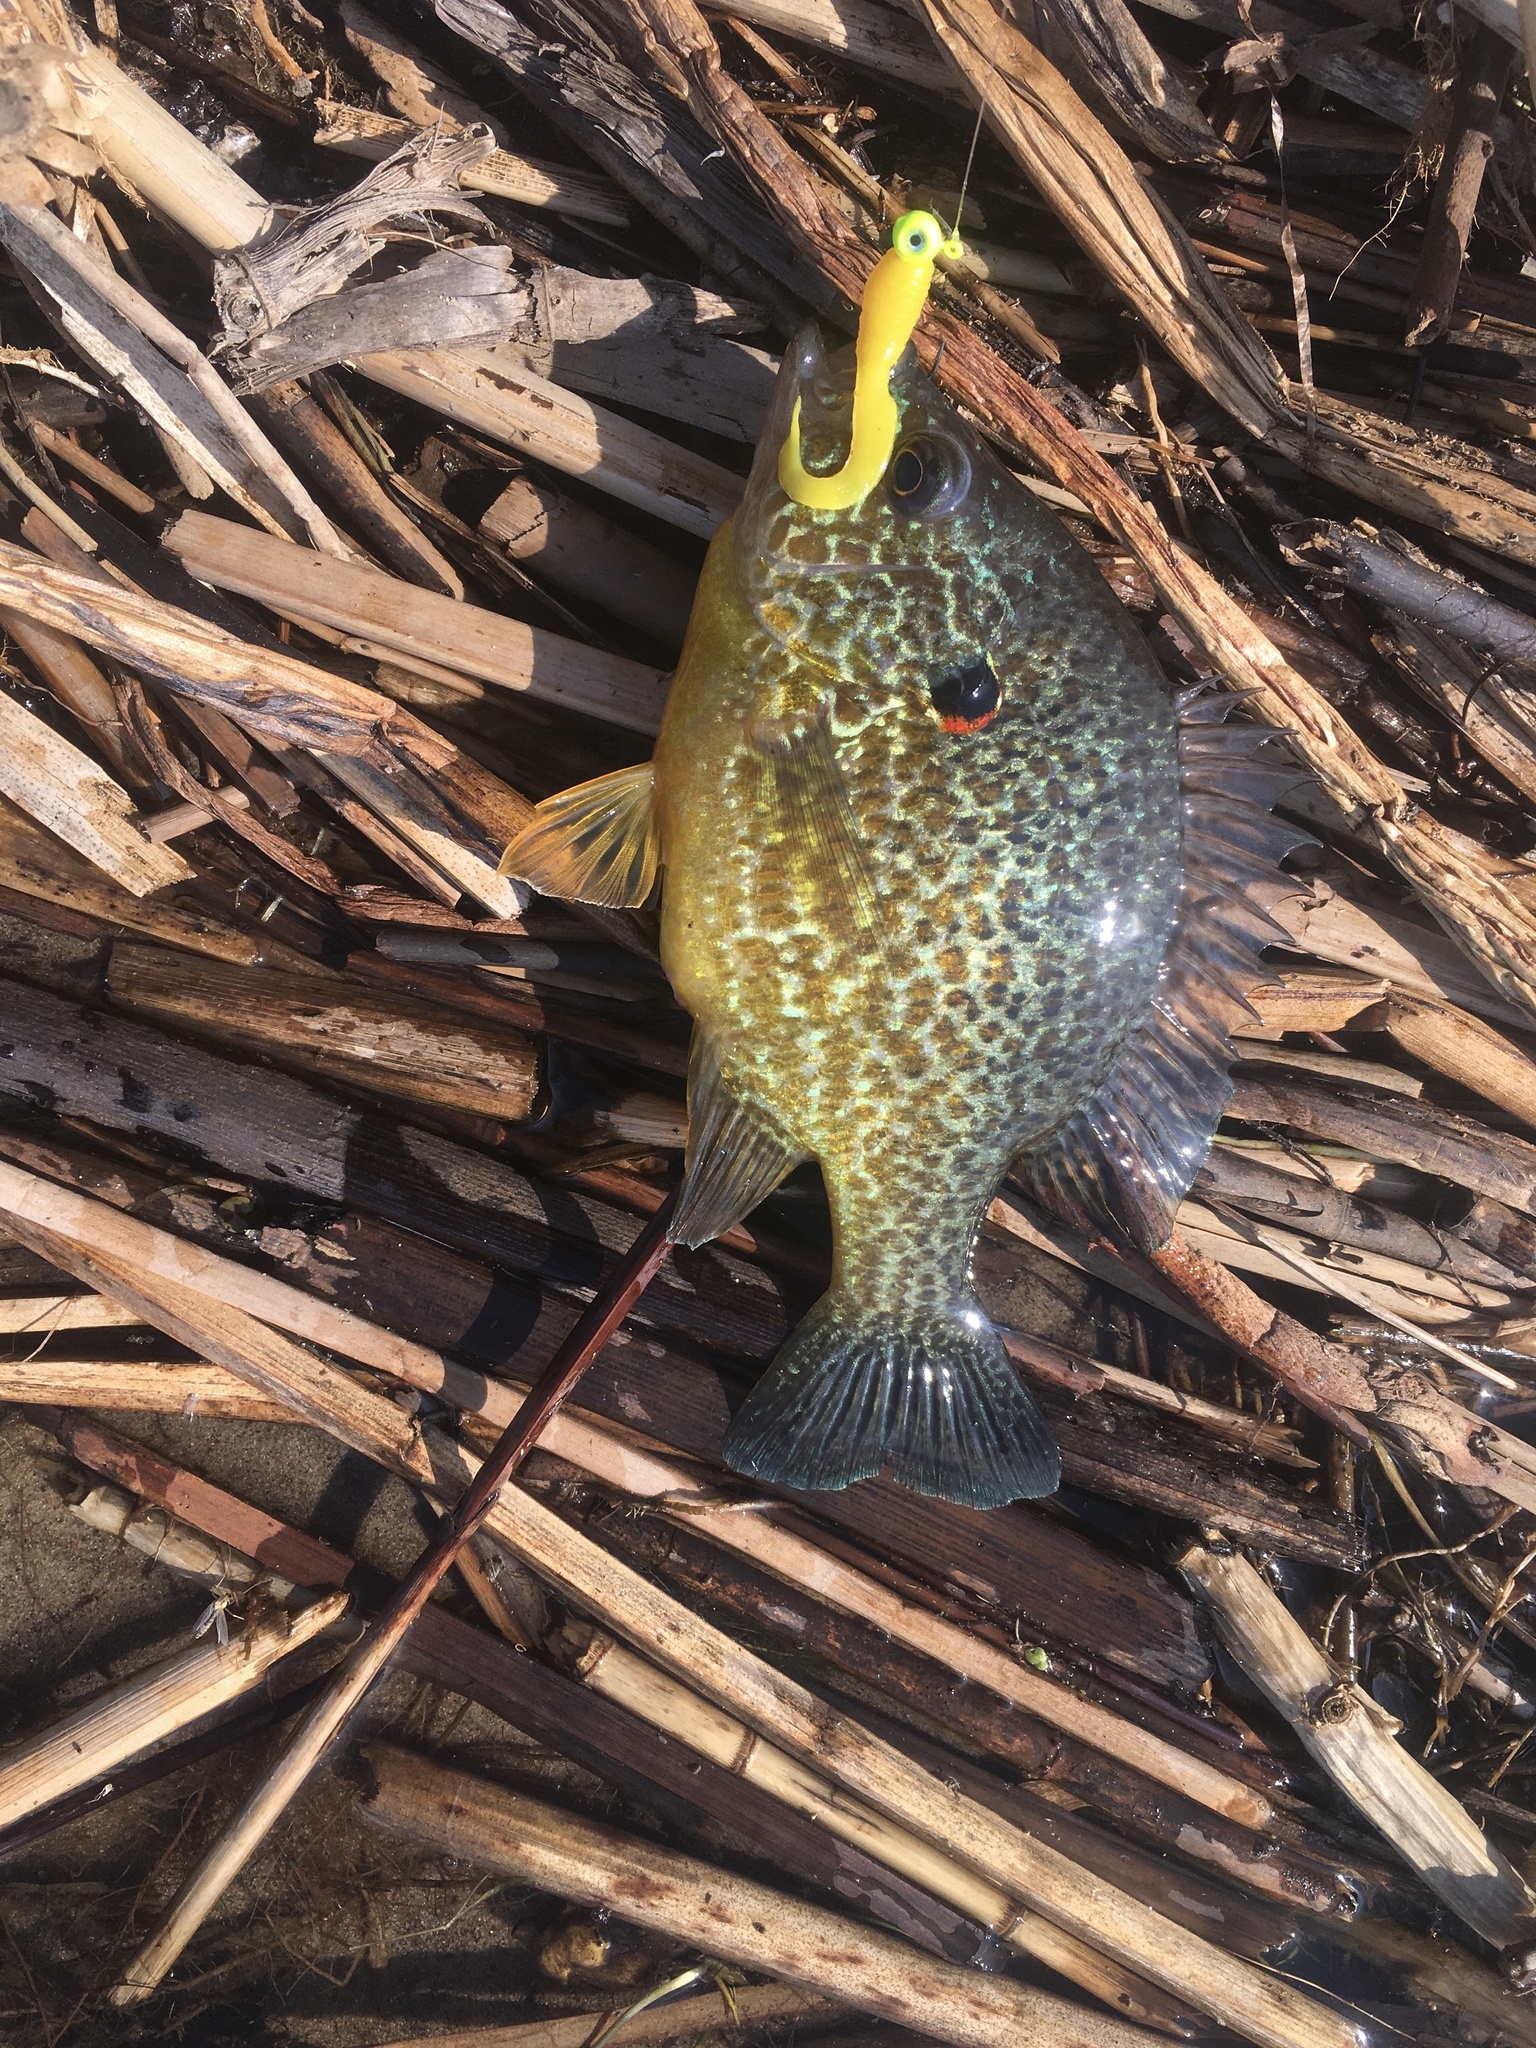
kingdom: Animalia
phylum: Chordata
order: Perciformes
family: Centrarchidae
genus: Lepomis
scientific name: Lepomis gibbosus
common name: Pumpkinseed
